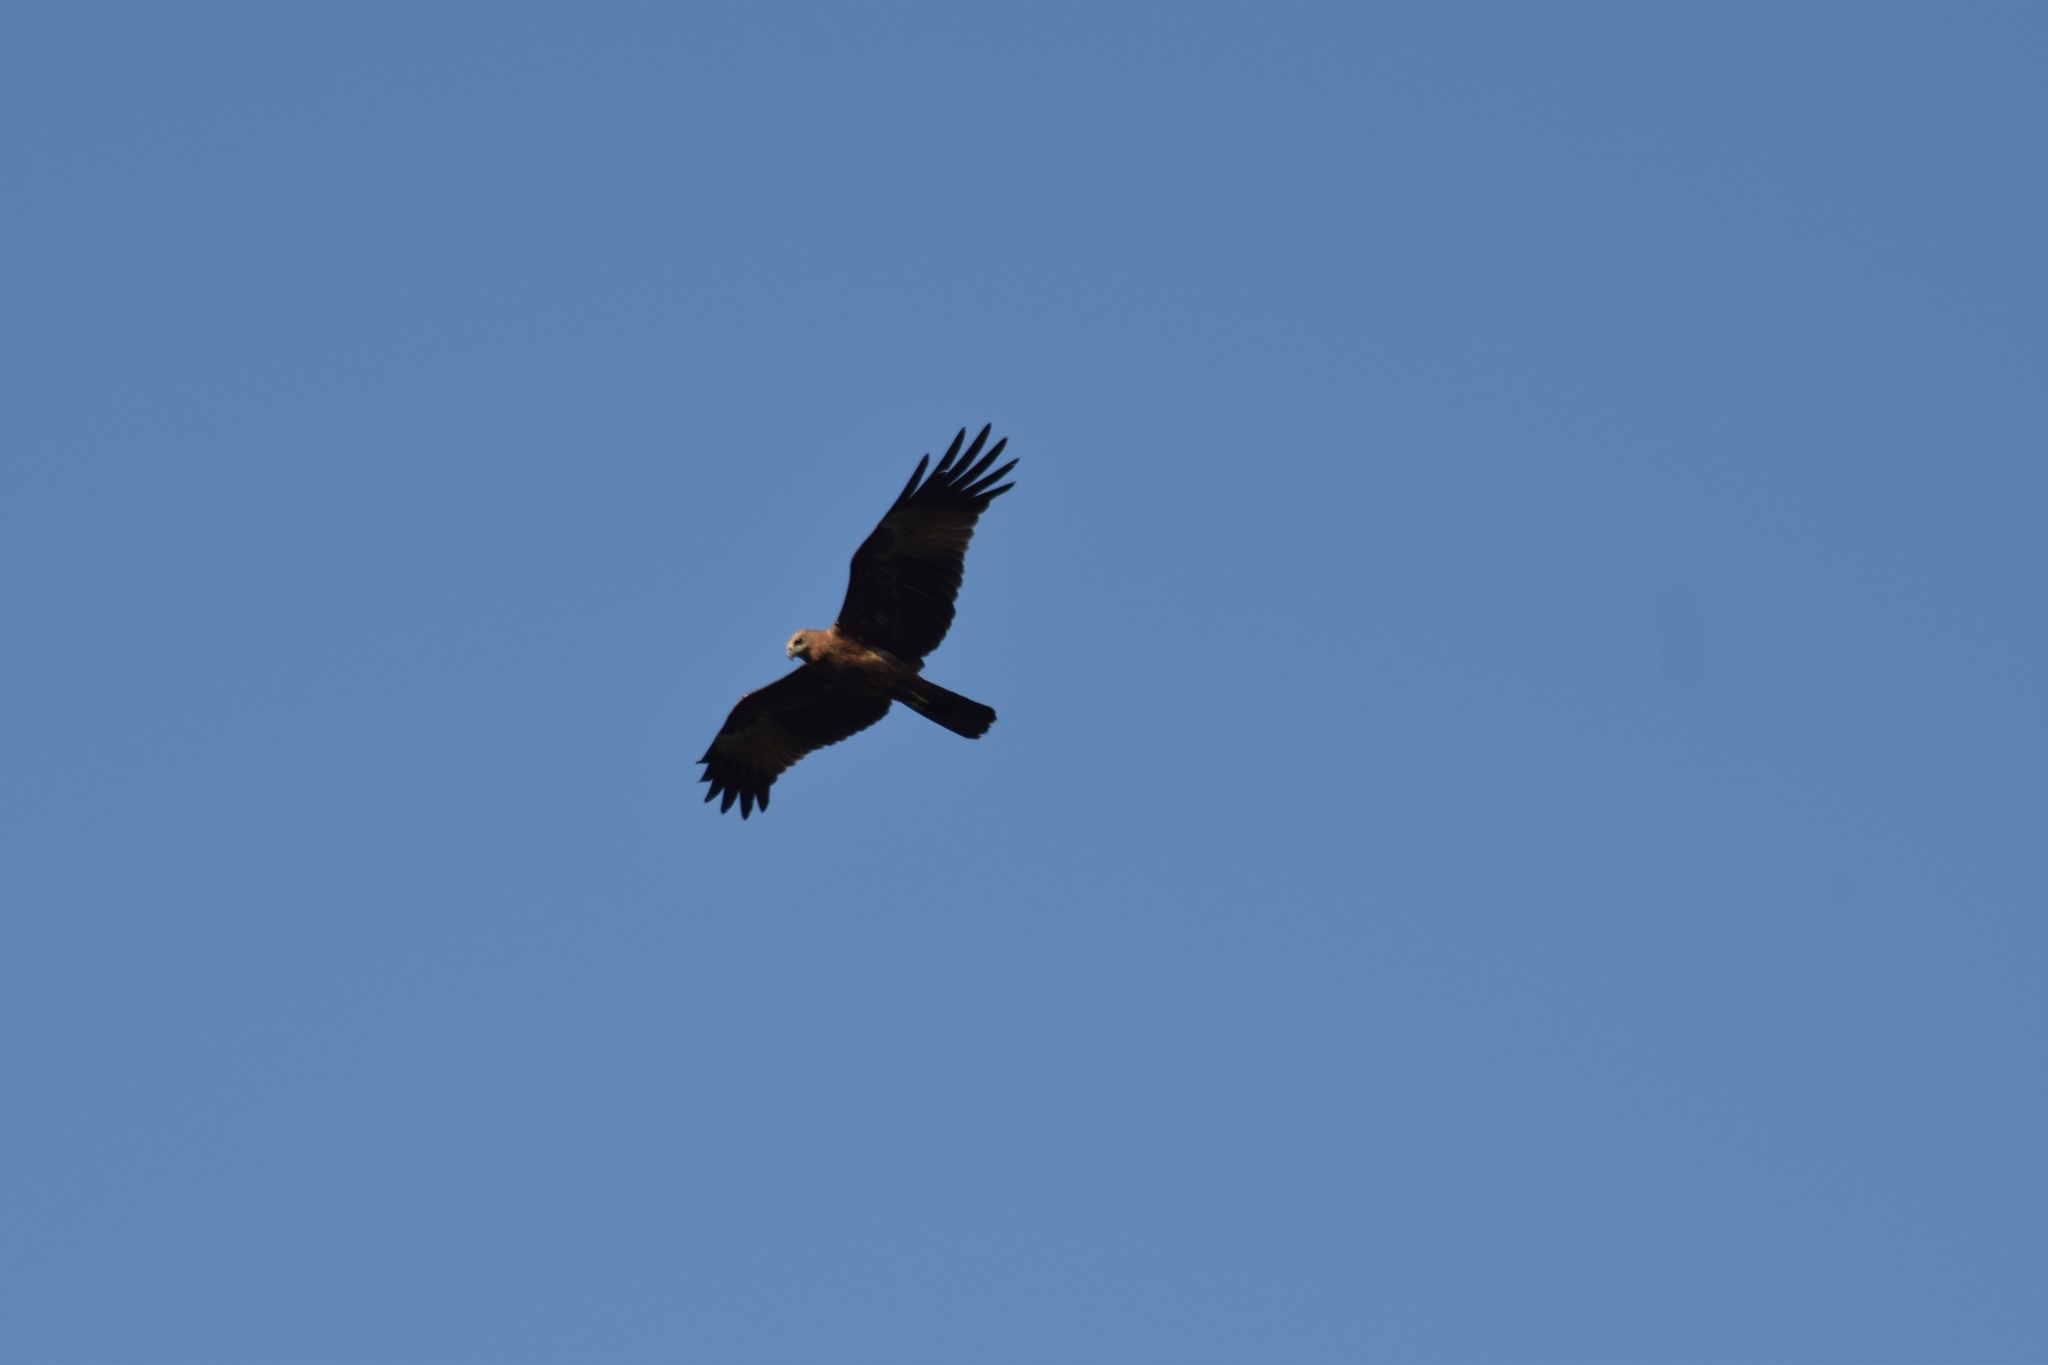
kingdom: Animalia
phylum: Chordata
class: Aves
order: Accipitriformes
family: Accipitridae
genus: Haliastur
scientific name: Haliastur indus
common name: Brahminy kite
